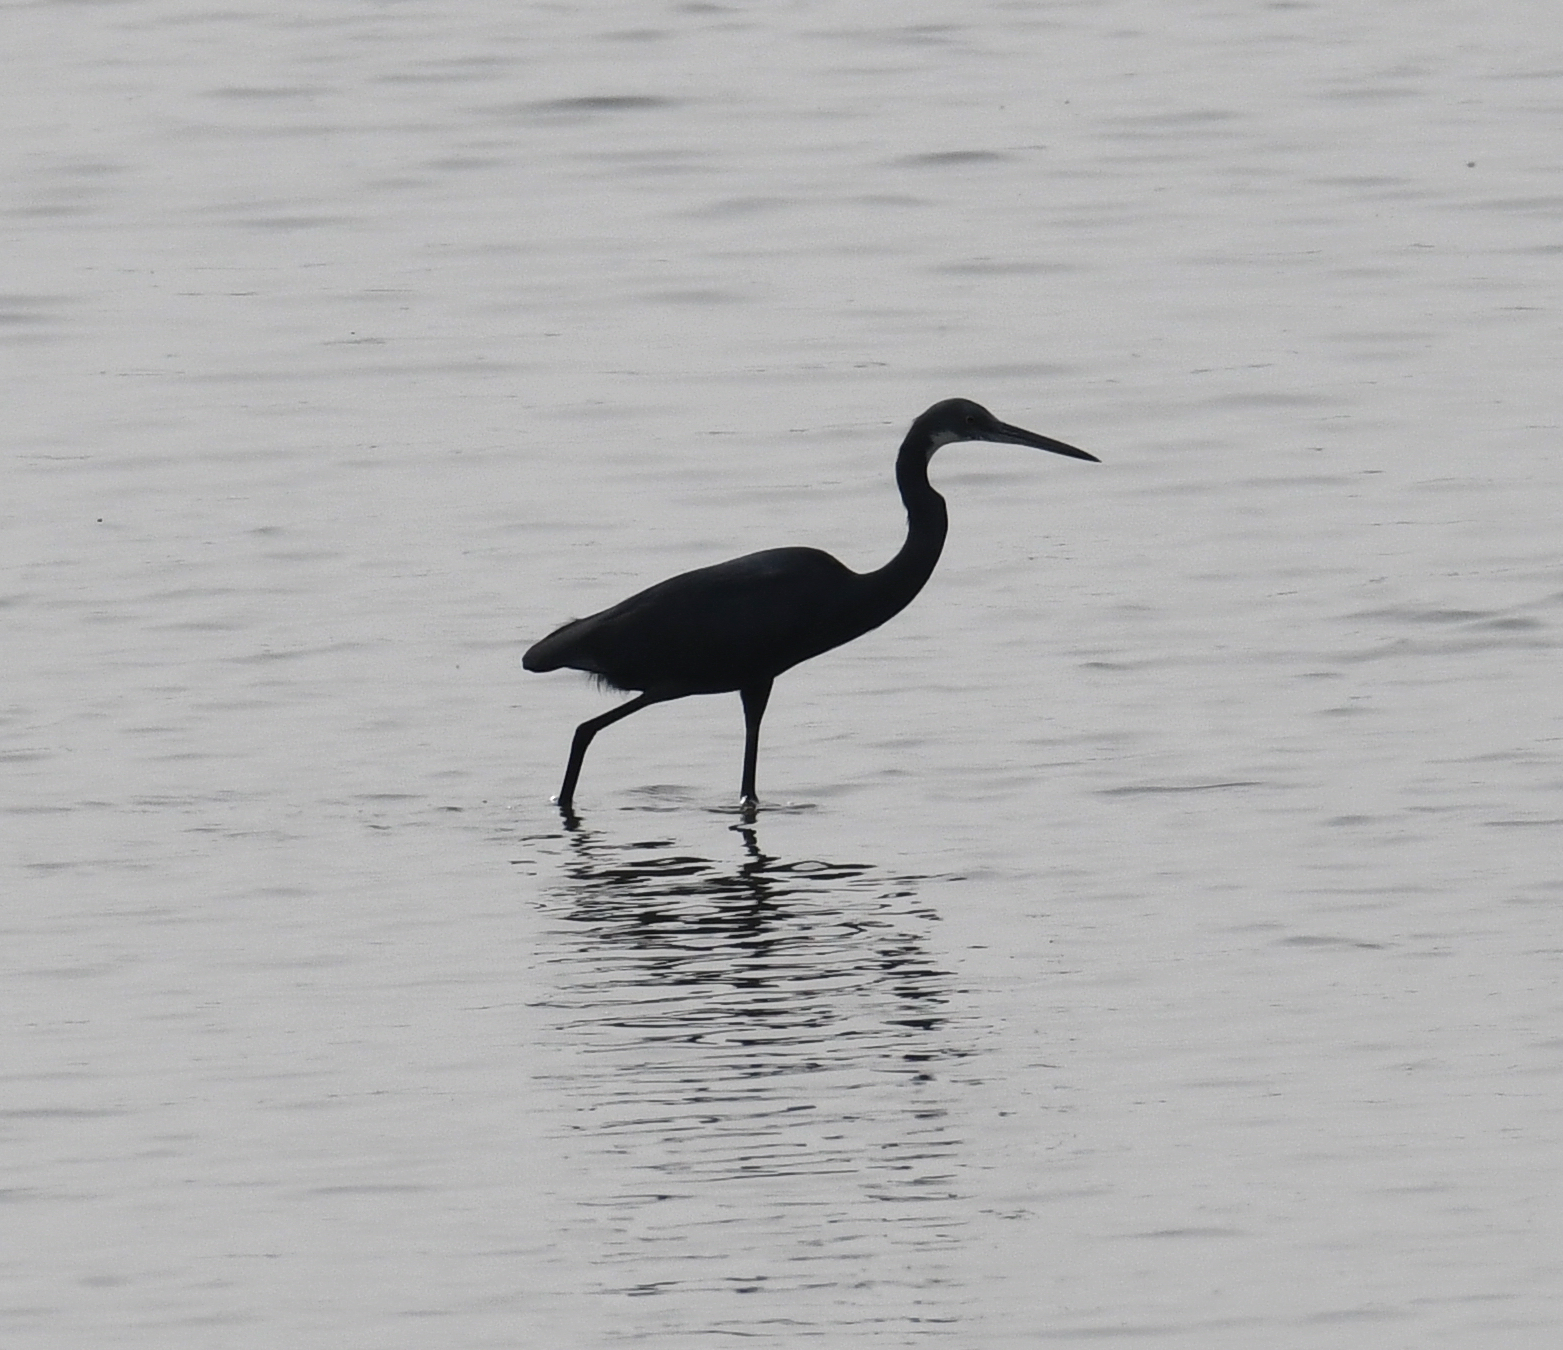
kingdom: Animalia
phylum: Chordata
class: Aves
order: Pelecaniformes
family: Ardeidae
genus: Egretta
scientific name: Egretta gularis
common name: Western reef-heron
